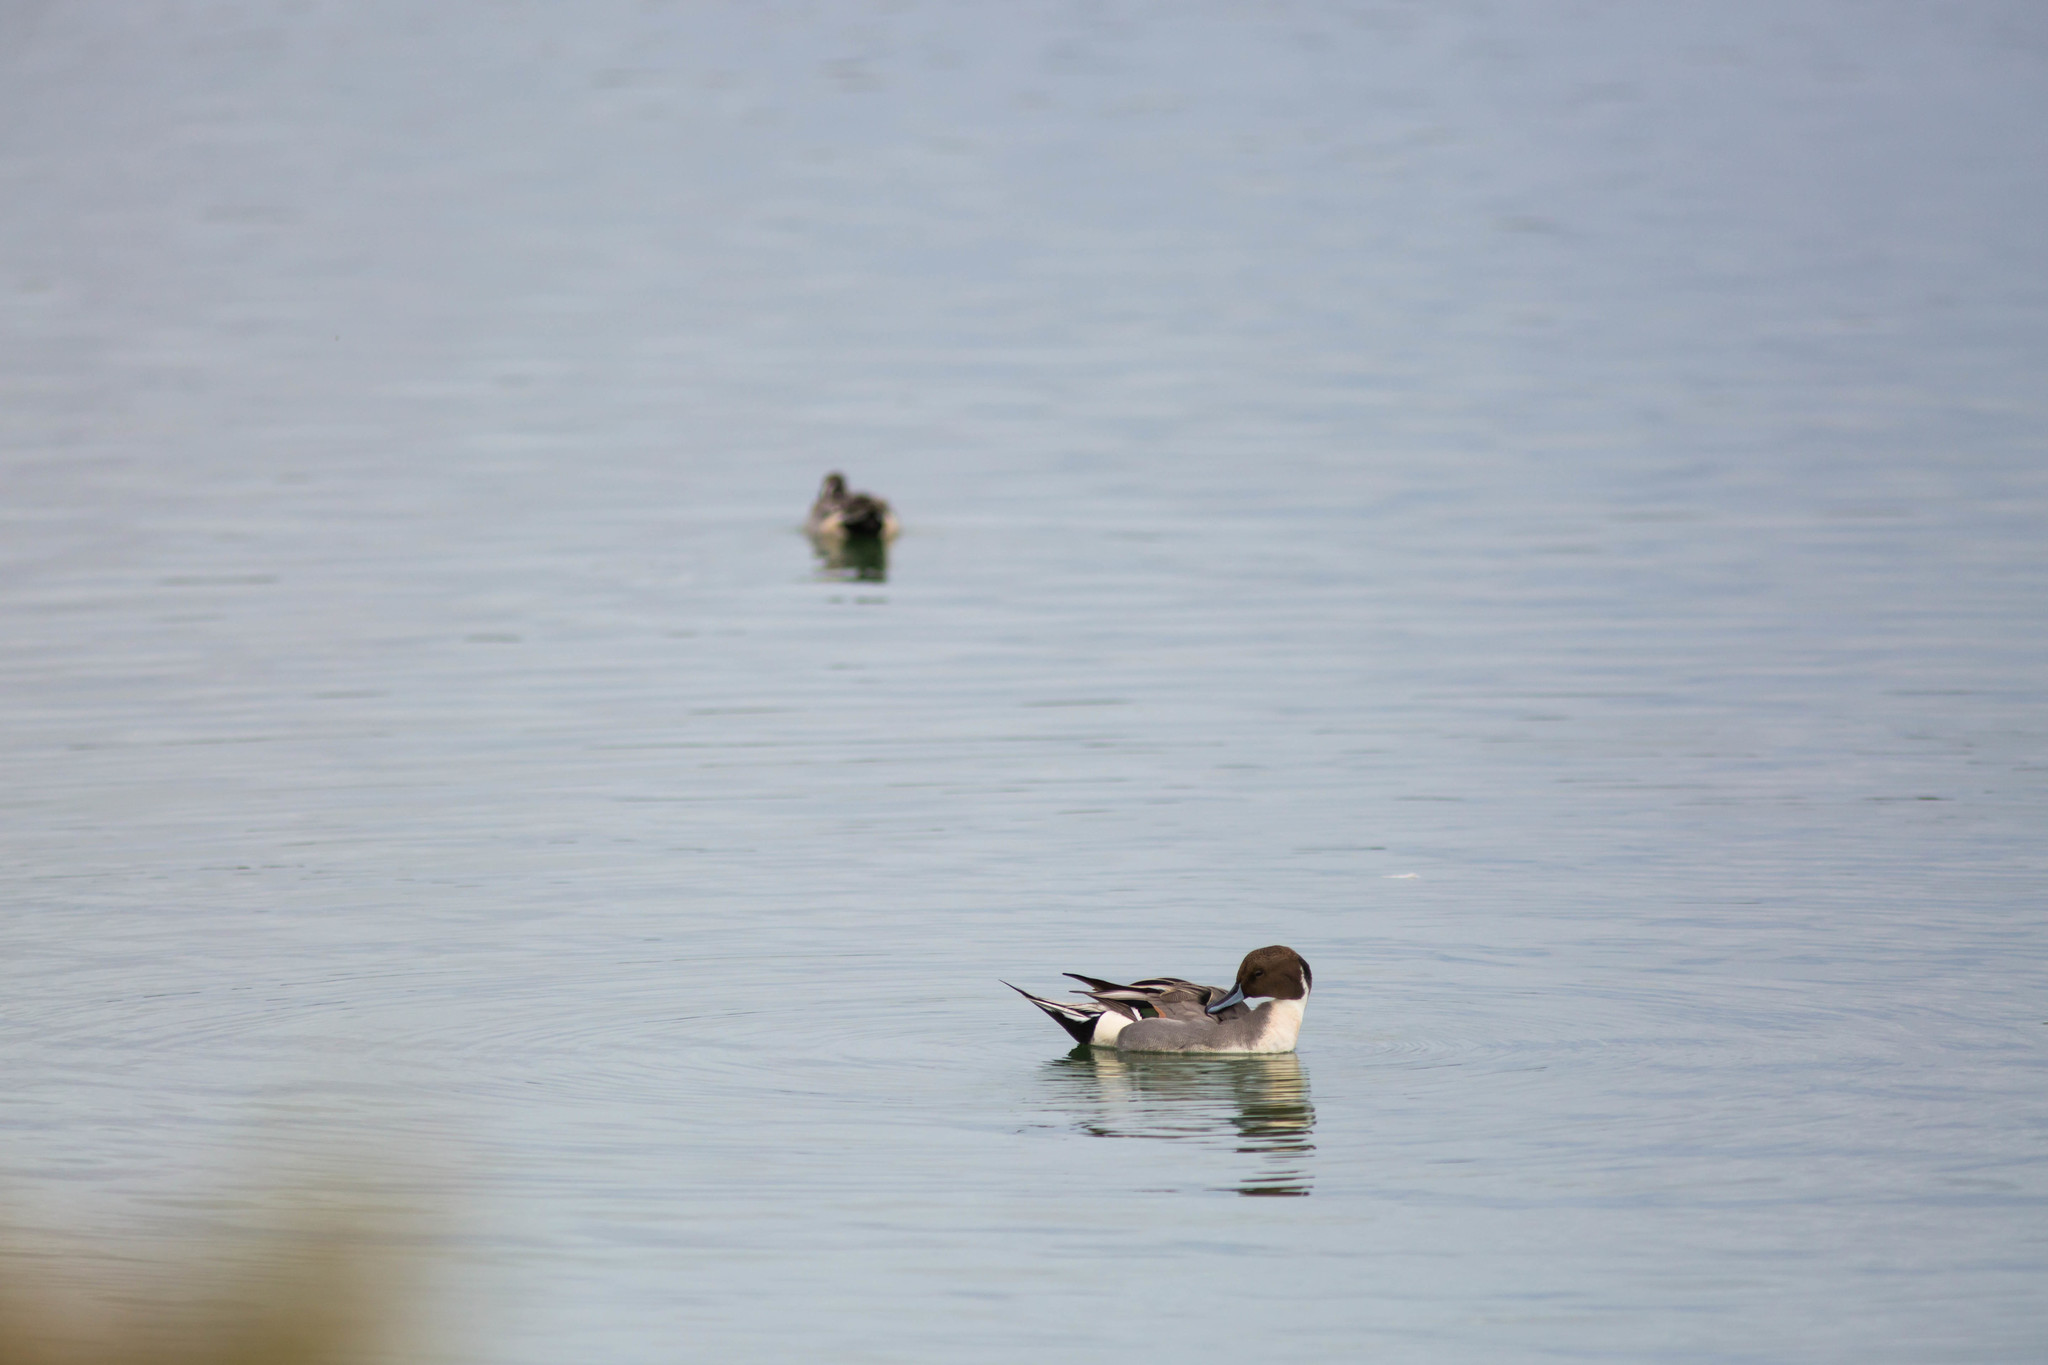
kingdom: Animalia
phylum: Chordata
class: Aves
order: Anseriformes
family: Anatidae
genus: Anas
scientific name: Anas acuta
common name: Northern pintail
